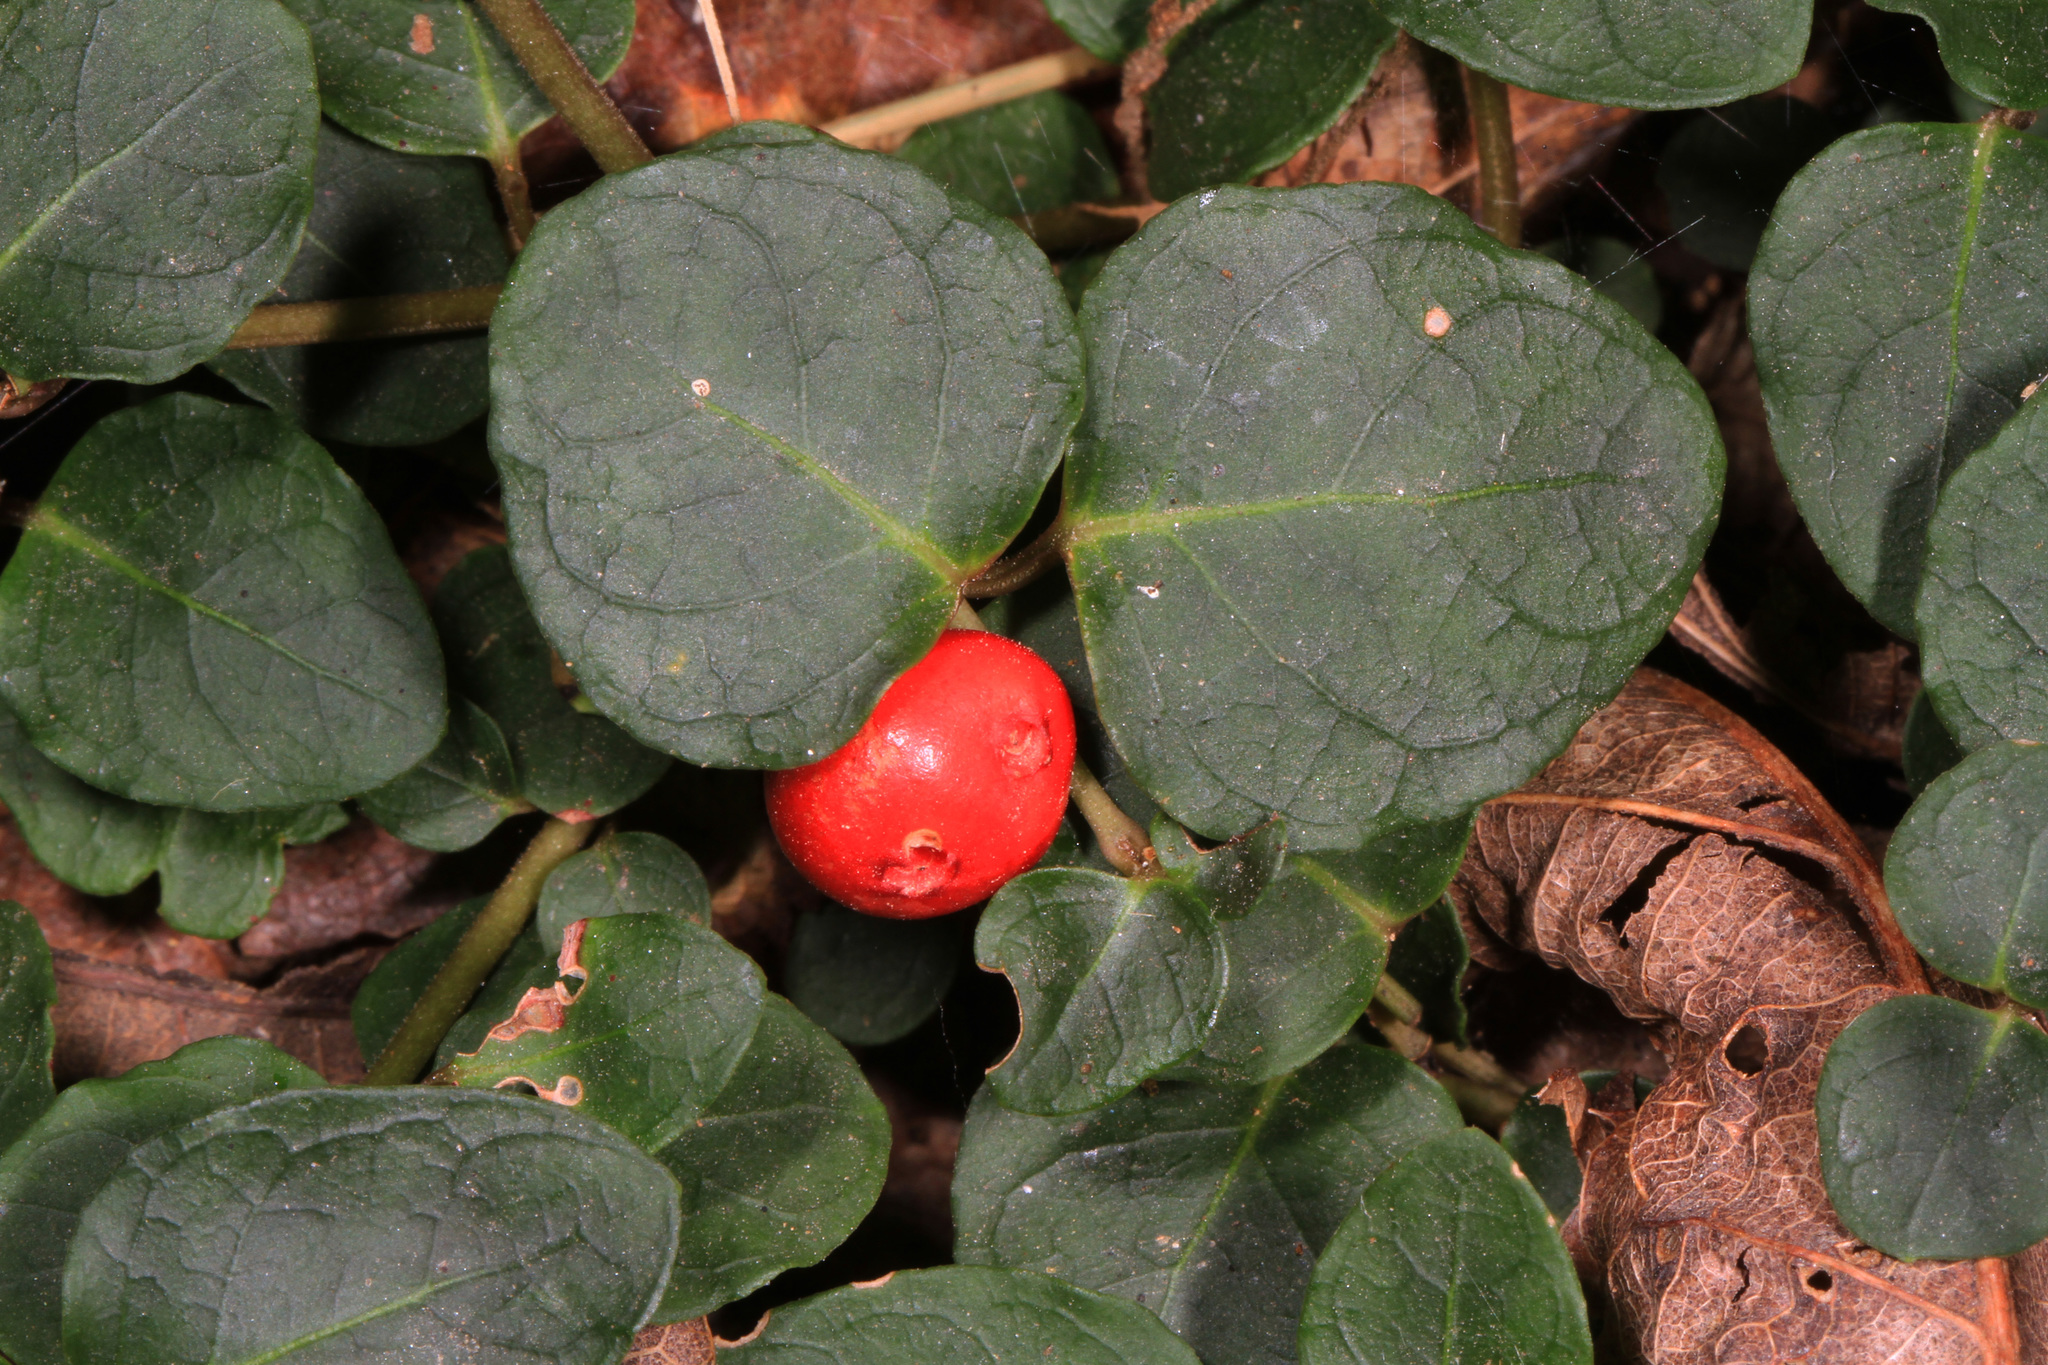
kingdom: Plantae
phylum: Tracheophyta
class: Magnoliopsida
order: Gentianales
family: Rubiaceae
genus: Mitchella
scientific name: Mitchella repens
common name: Partridge-berry
